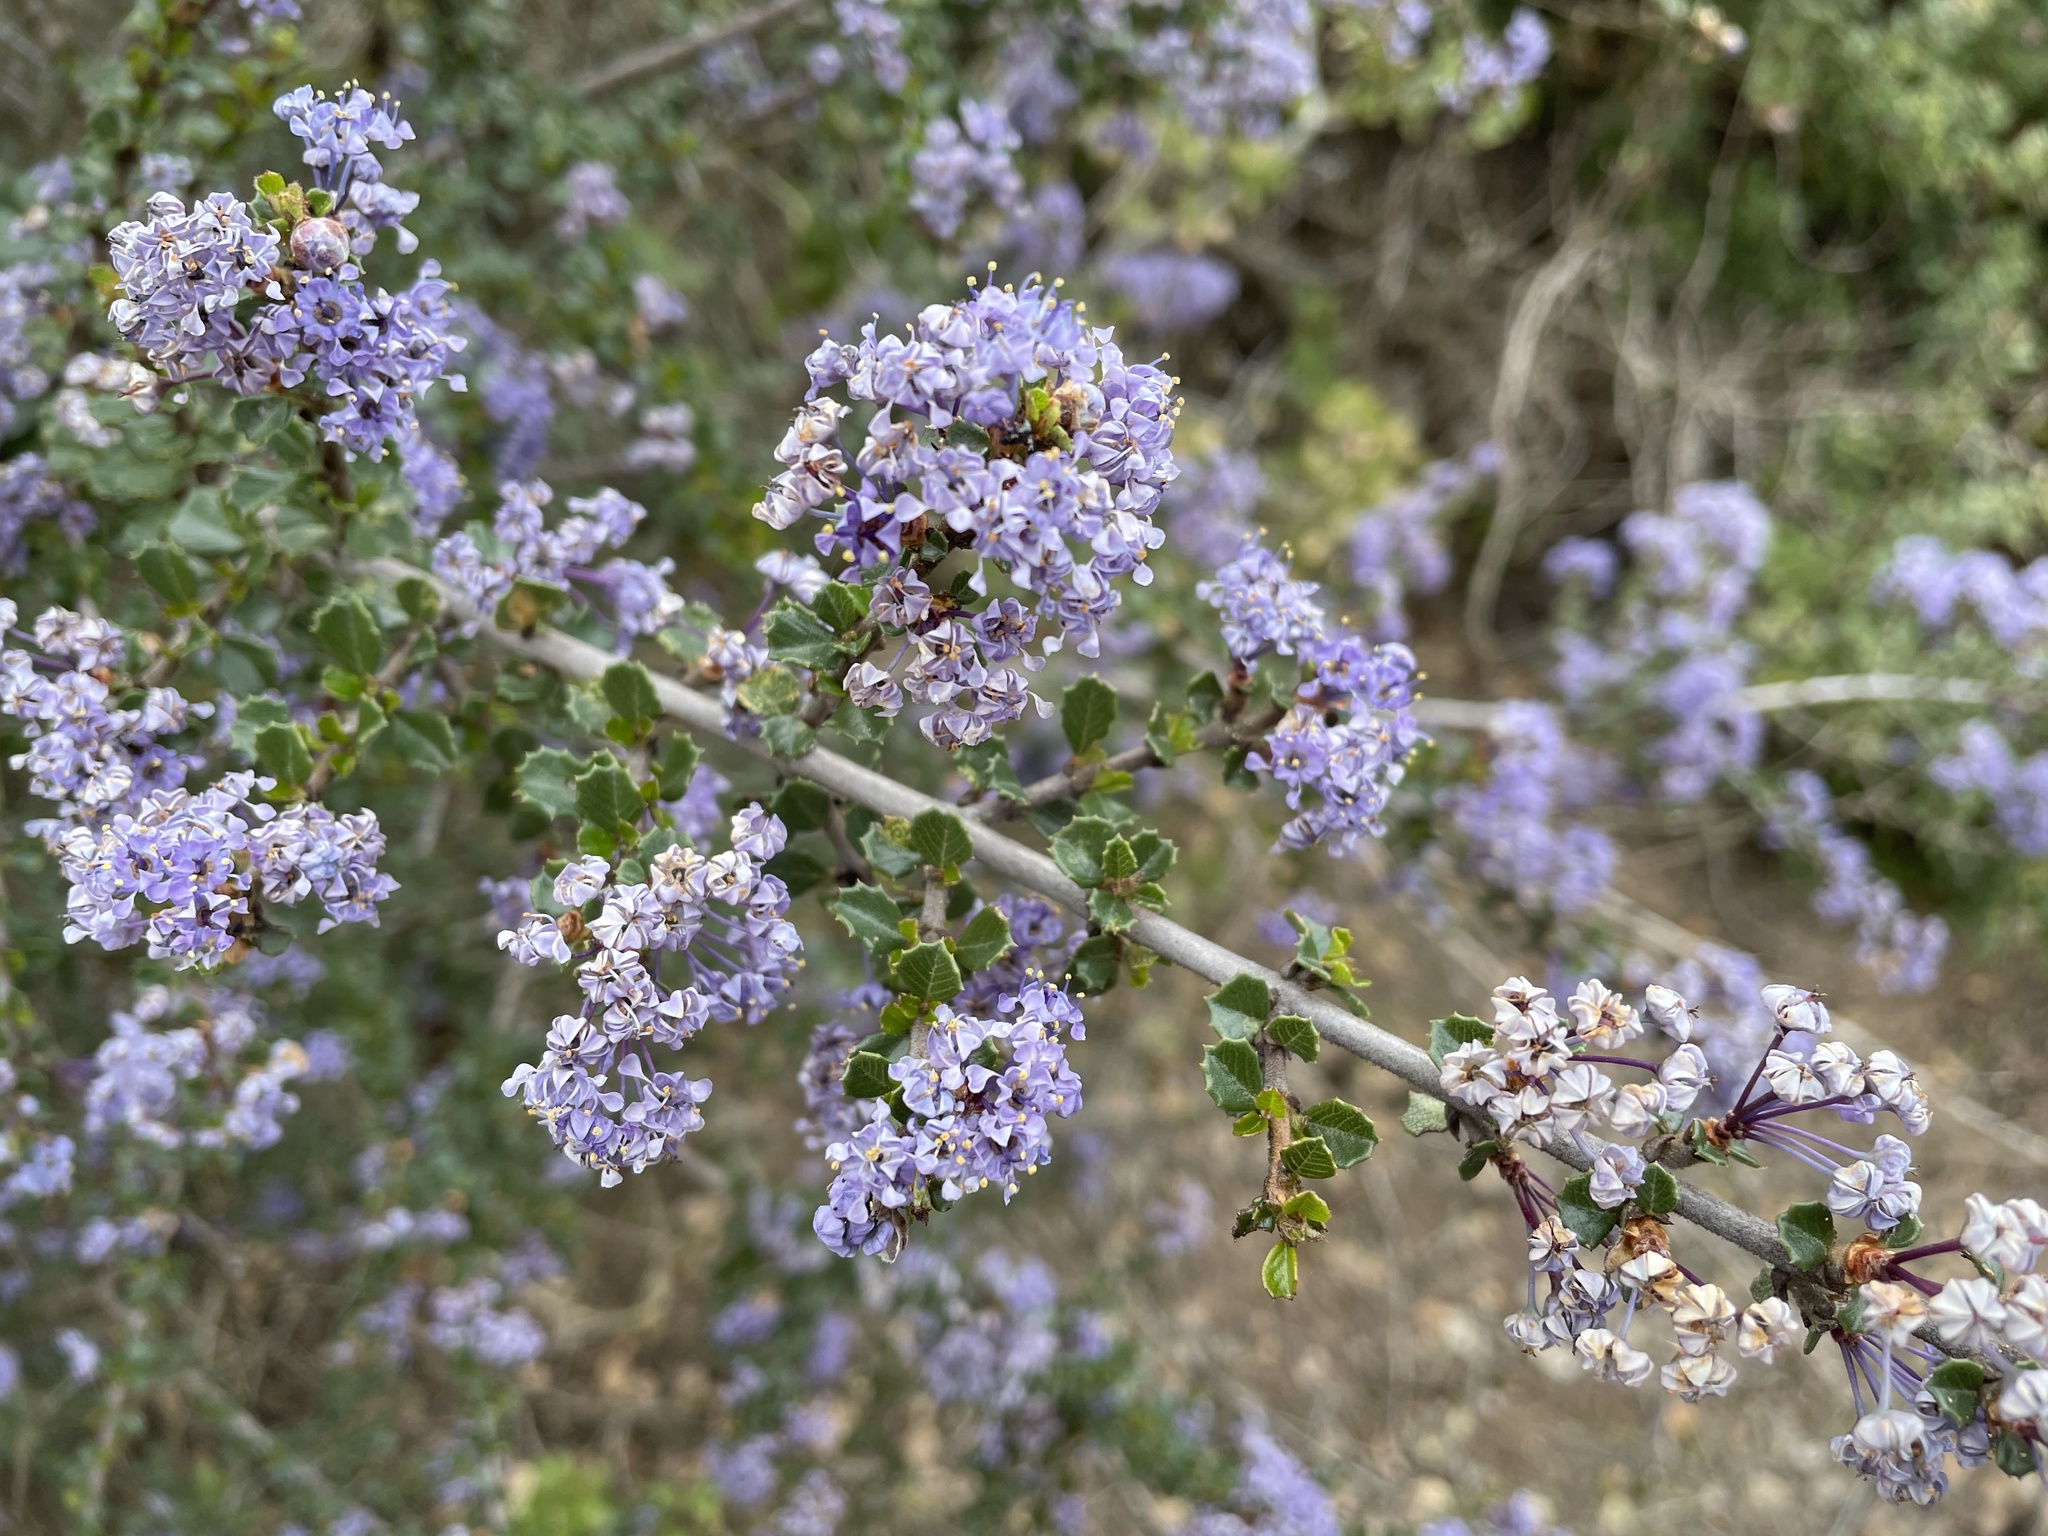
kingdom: Plantae
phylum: Tracheophyta
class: Magnoliopsida
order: Rosales
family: Rhamnaceae
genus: Ceanothus
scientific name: Ceanothus cuneatus
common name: Cuneate ceanothus
